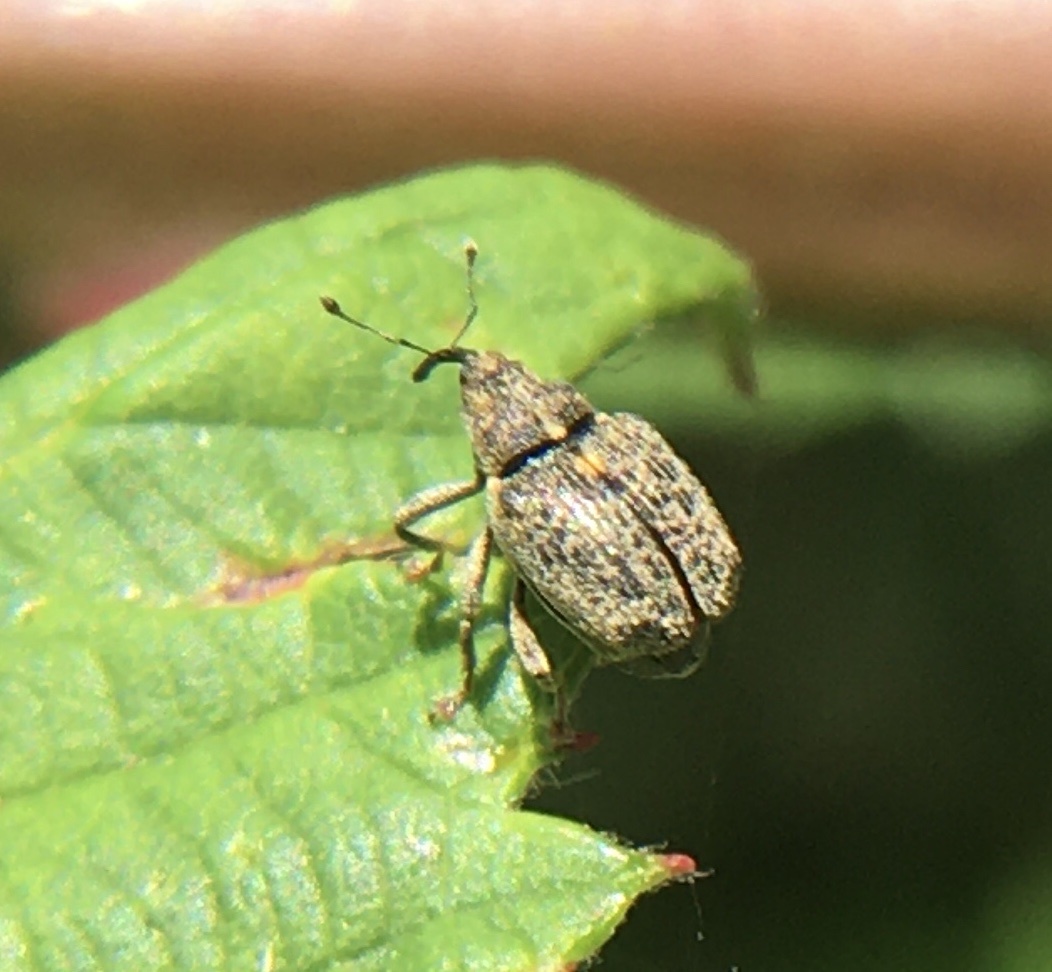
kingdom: Animalia
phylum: Arthropoda
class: Insecta
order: Coleoptera
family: Curculionidae
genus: Ceutorhynchus
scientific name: Ceutorhynchus pallidactylus
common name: Cabbage stem weavil
